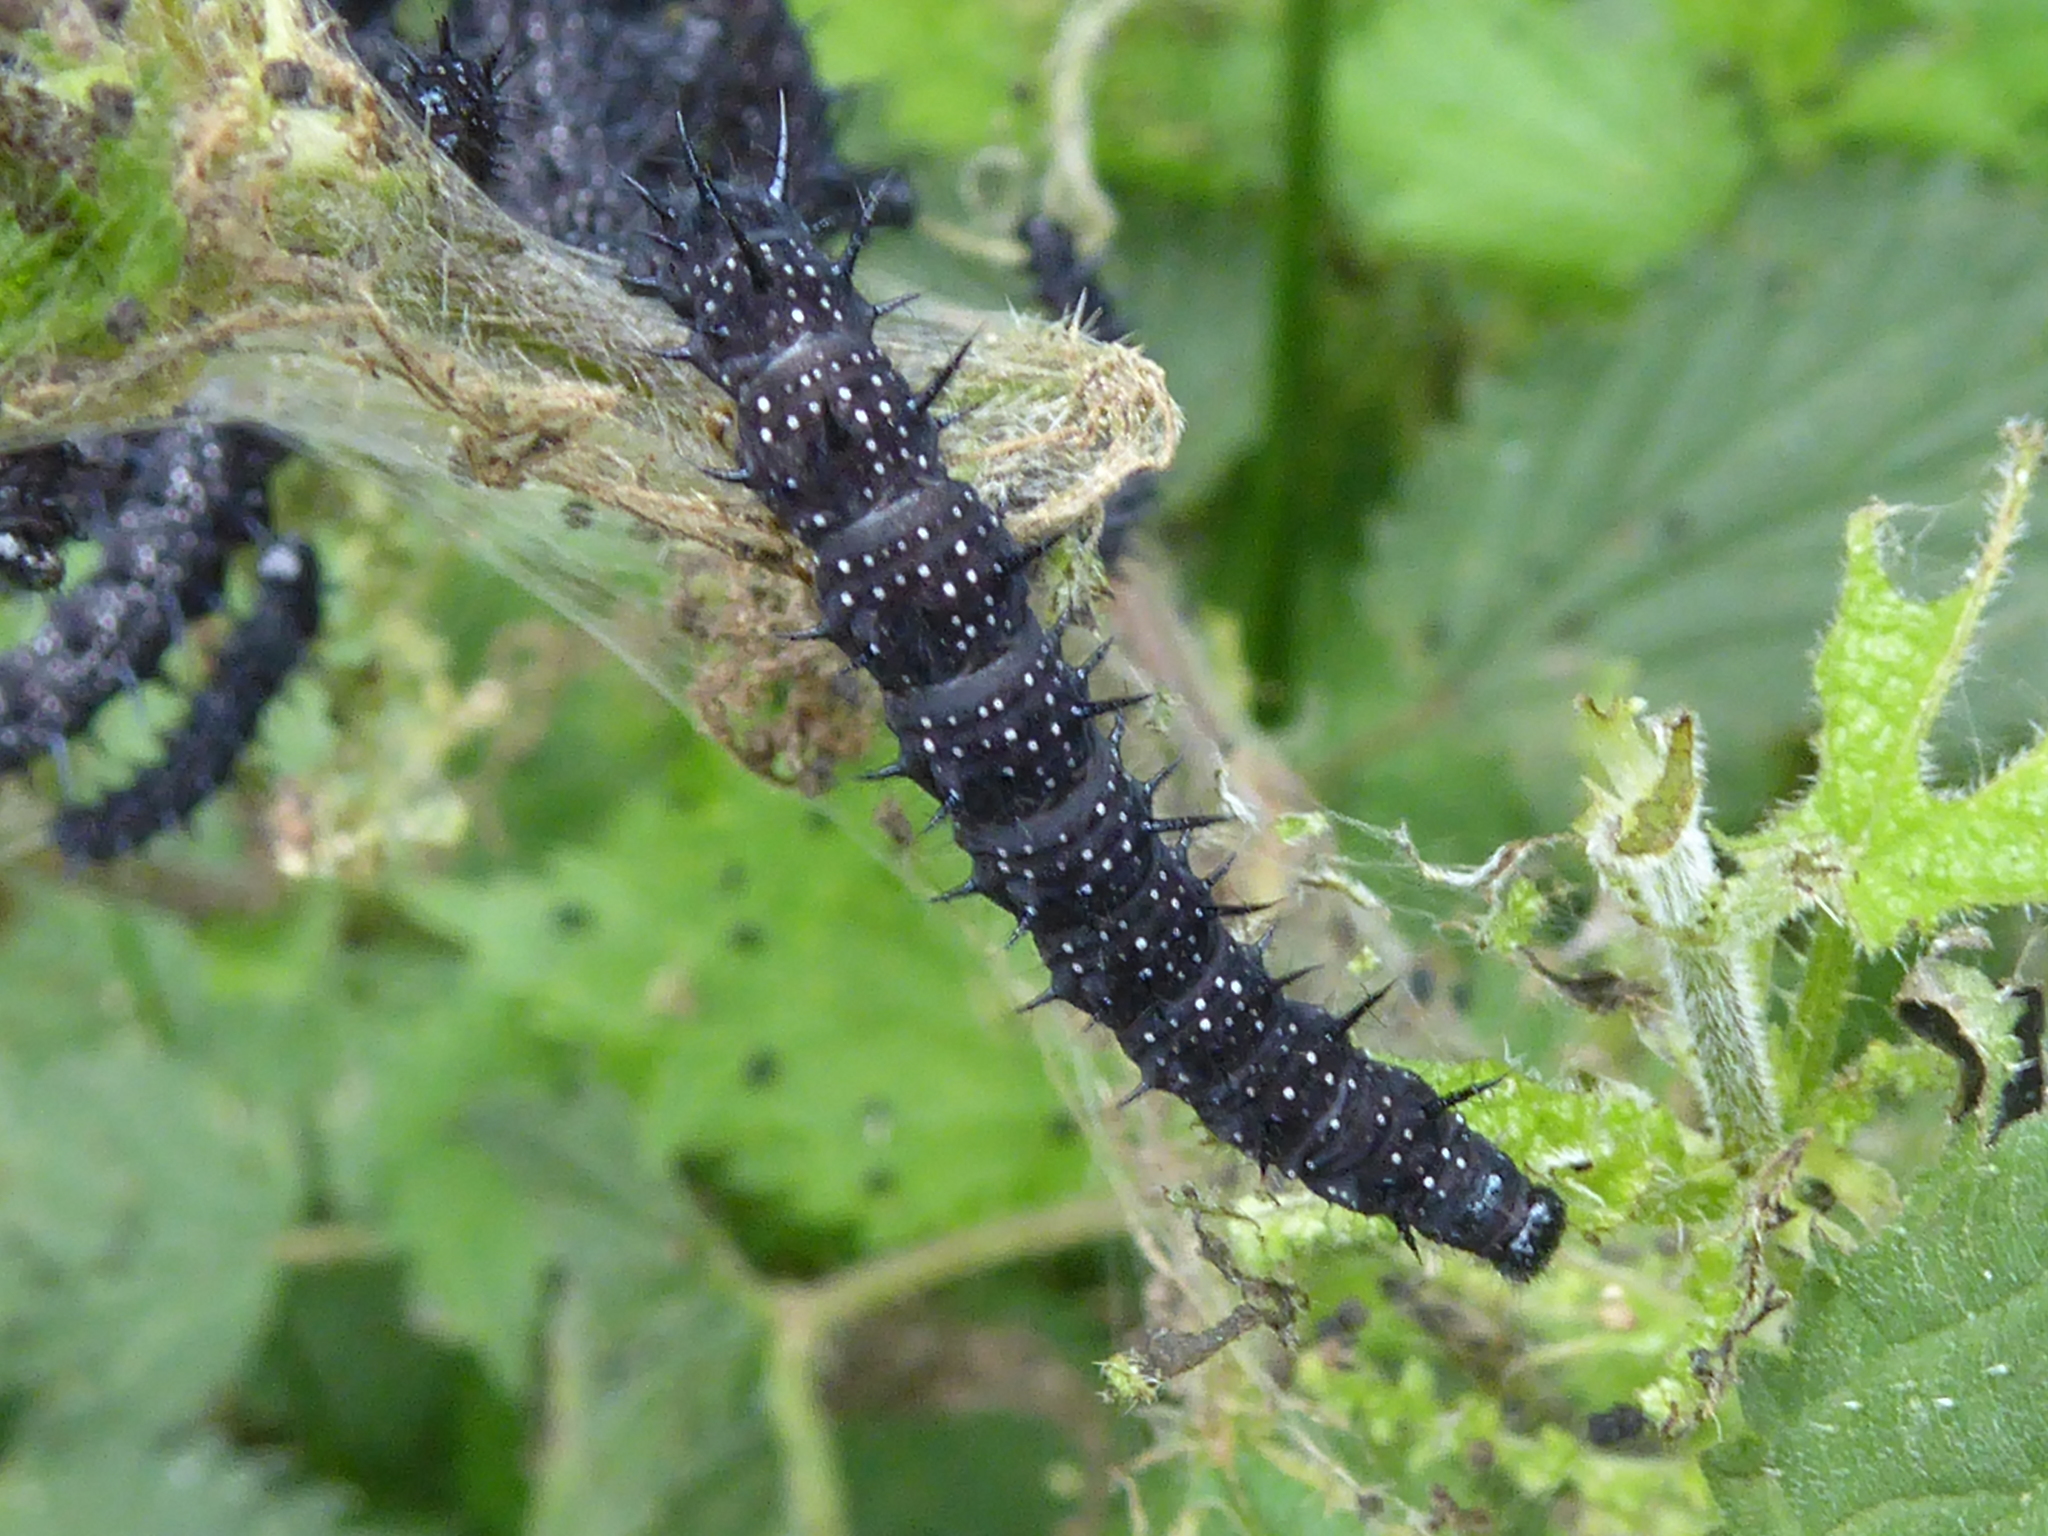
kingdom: Animalia
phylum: Arthropoda
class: Insecta
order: Lepidoptera
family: Nymphalidae
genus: Aglais
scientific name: Aglais io
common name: Peacock
